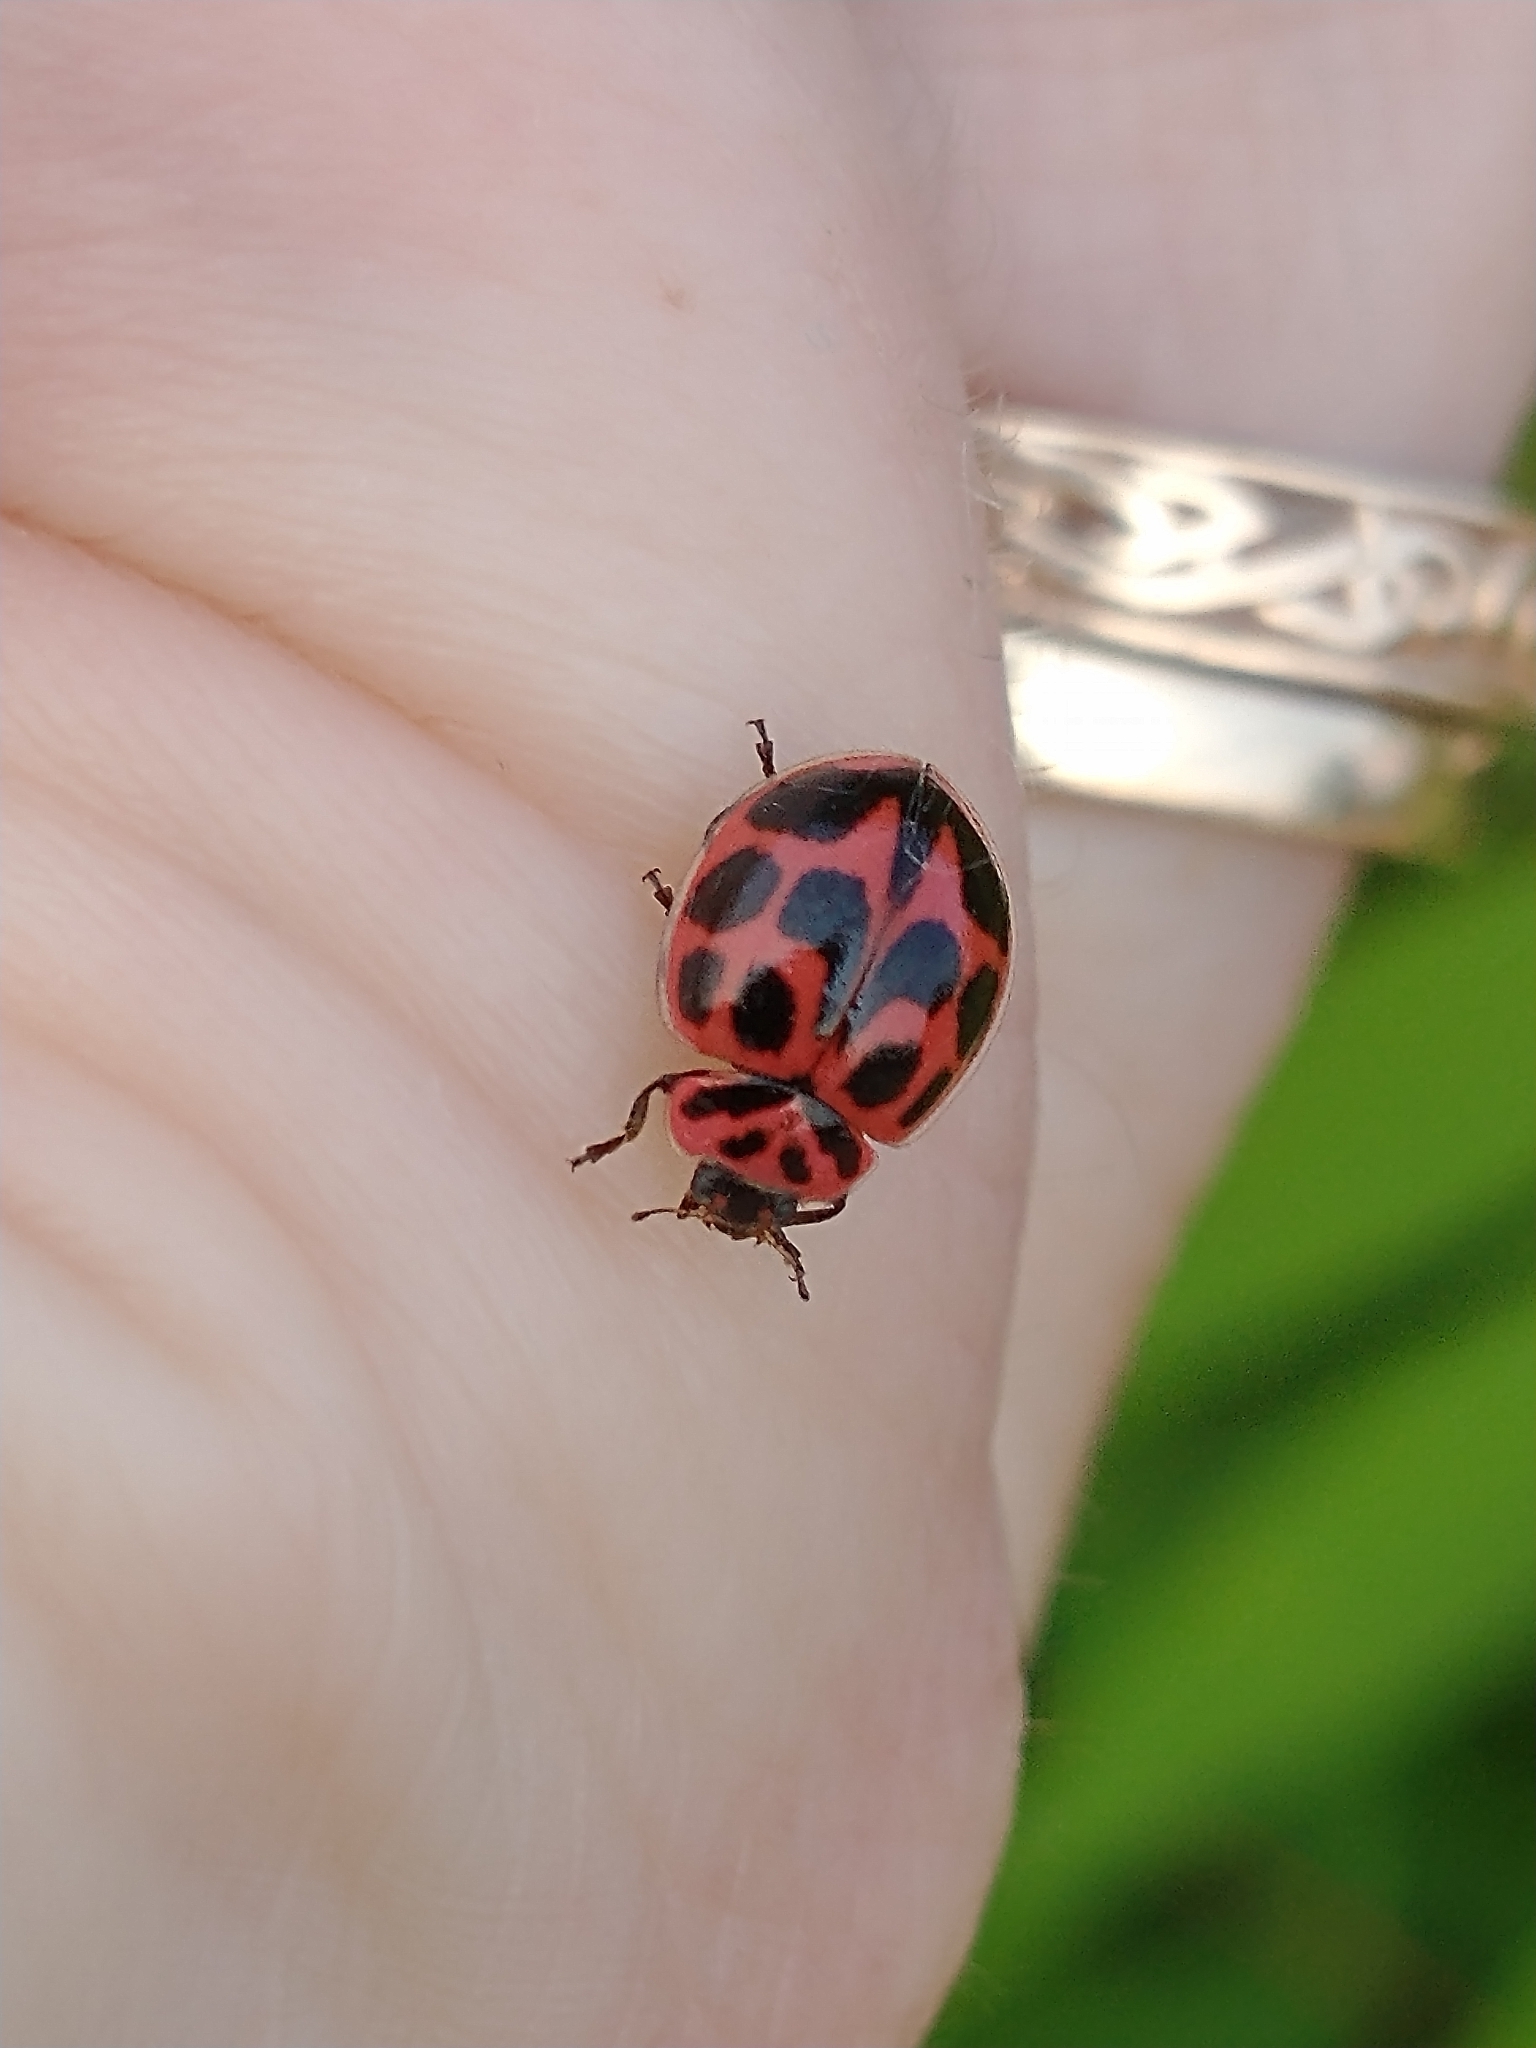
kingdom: Animalia
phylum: Arthropoda
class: Insecta
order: Coleoptera
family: Coccinellidae
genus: Neoharmonia
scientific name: Neoharmonia venusta
